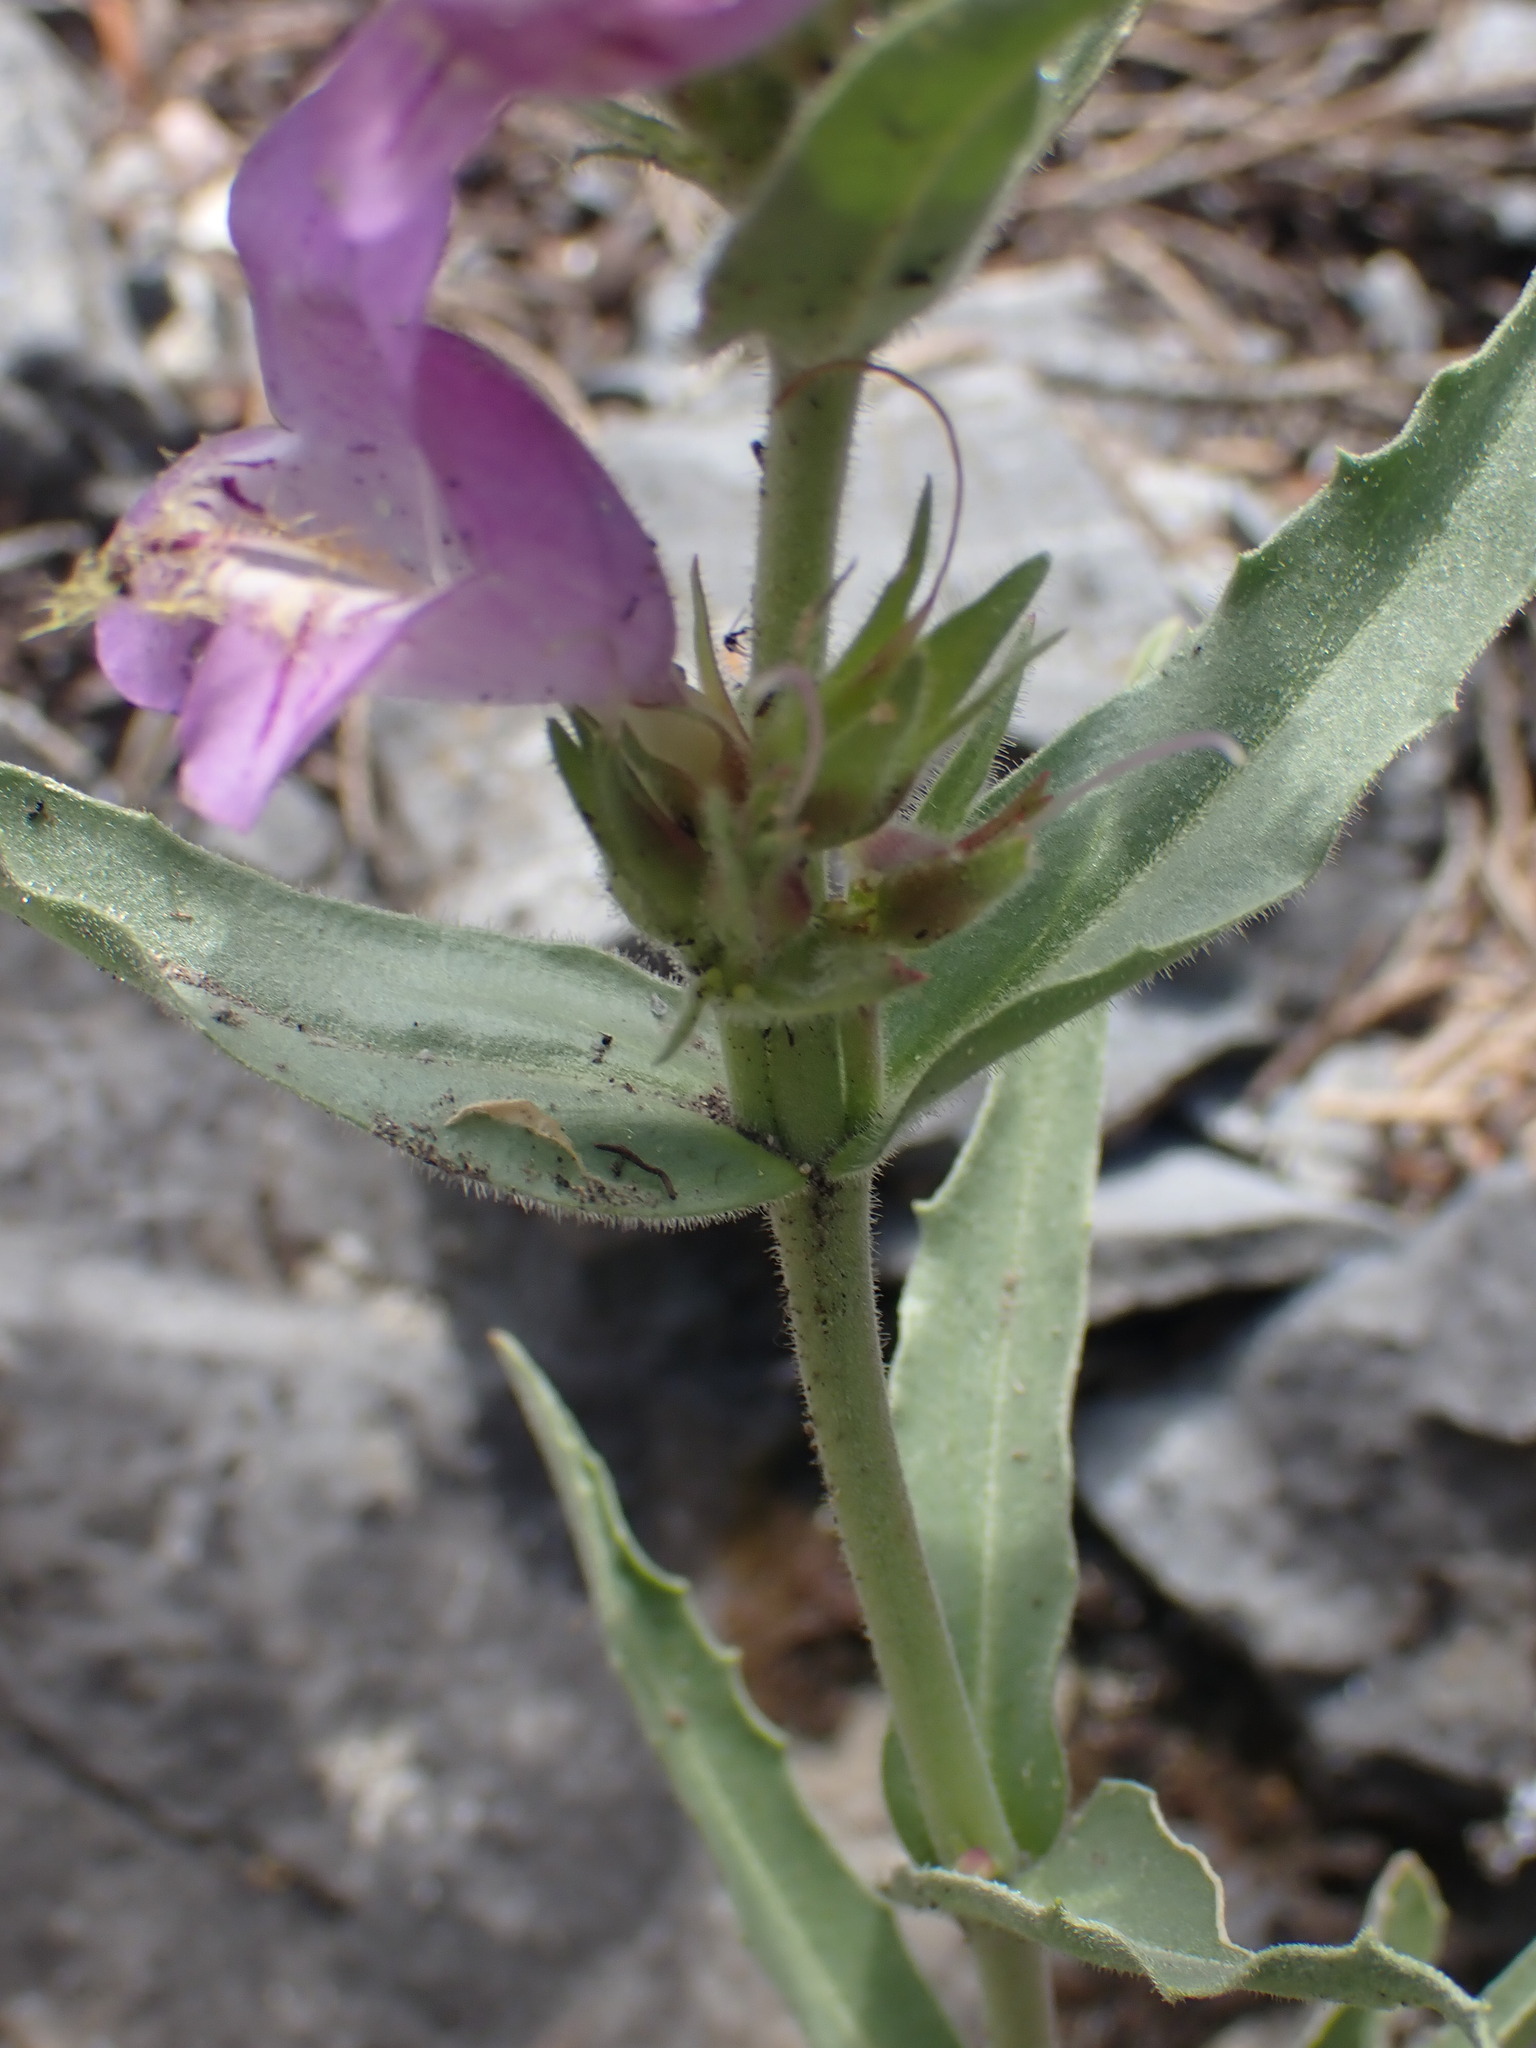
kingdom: Plantae
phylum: Tracheophyta
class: Magnoliopsida
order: Lamiales
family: Plantaginaceae
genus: Penstemon
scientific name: Penstemon eriantherus
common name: Crested beardtongue
